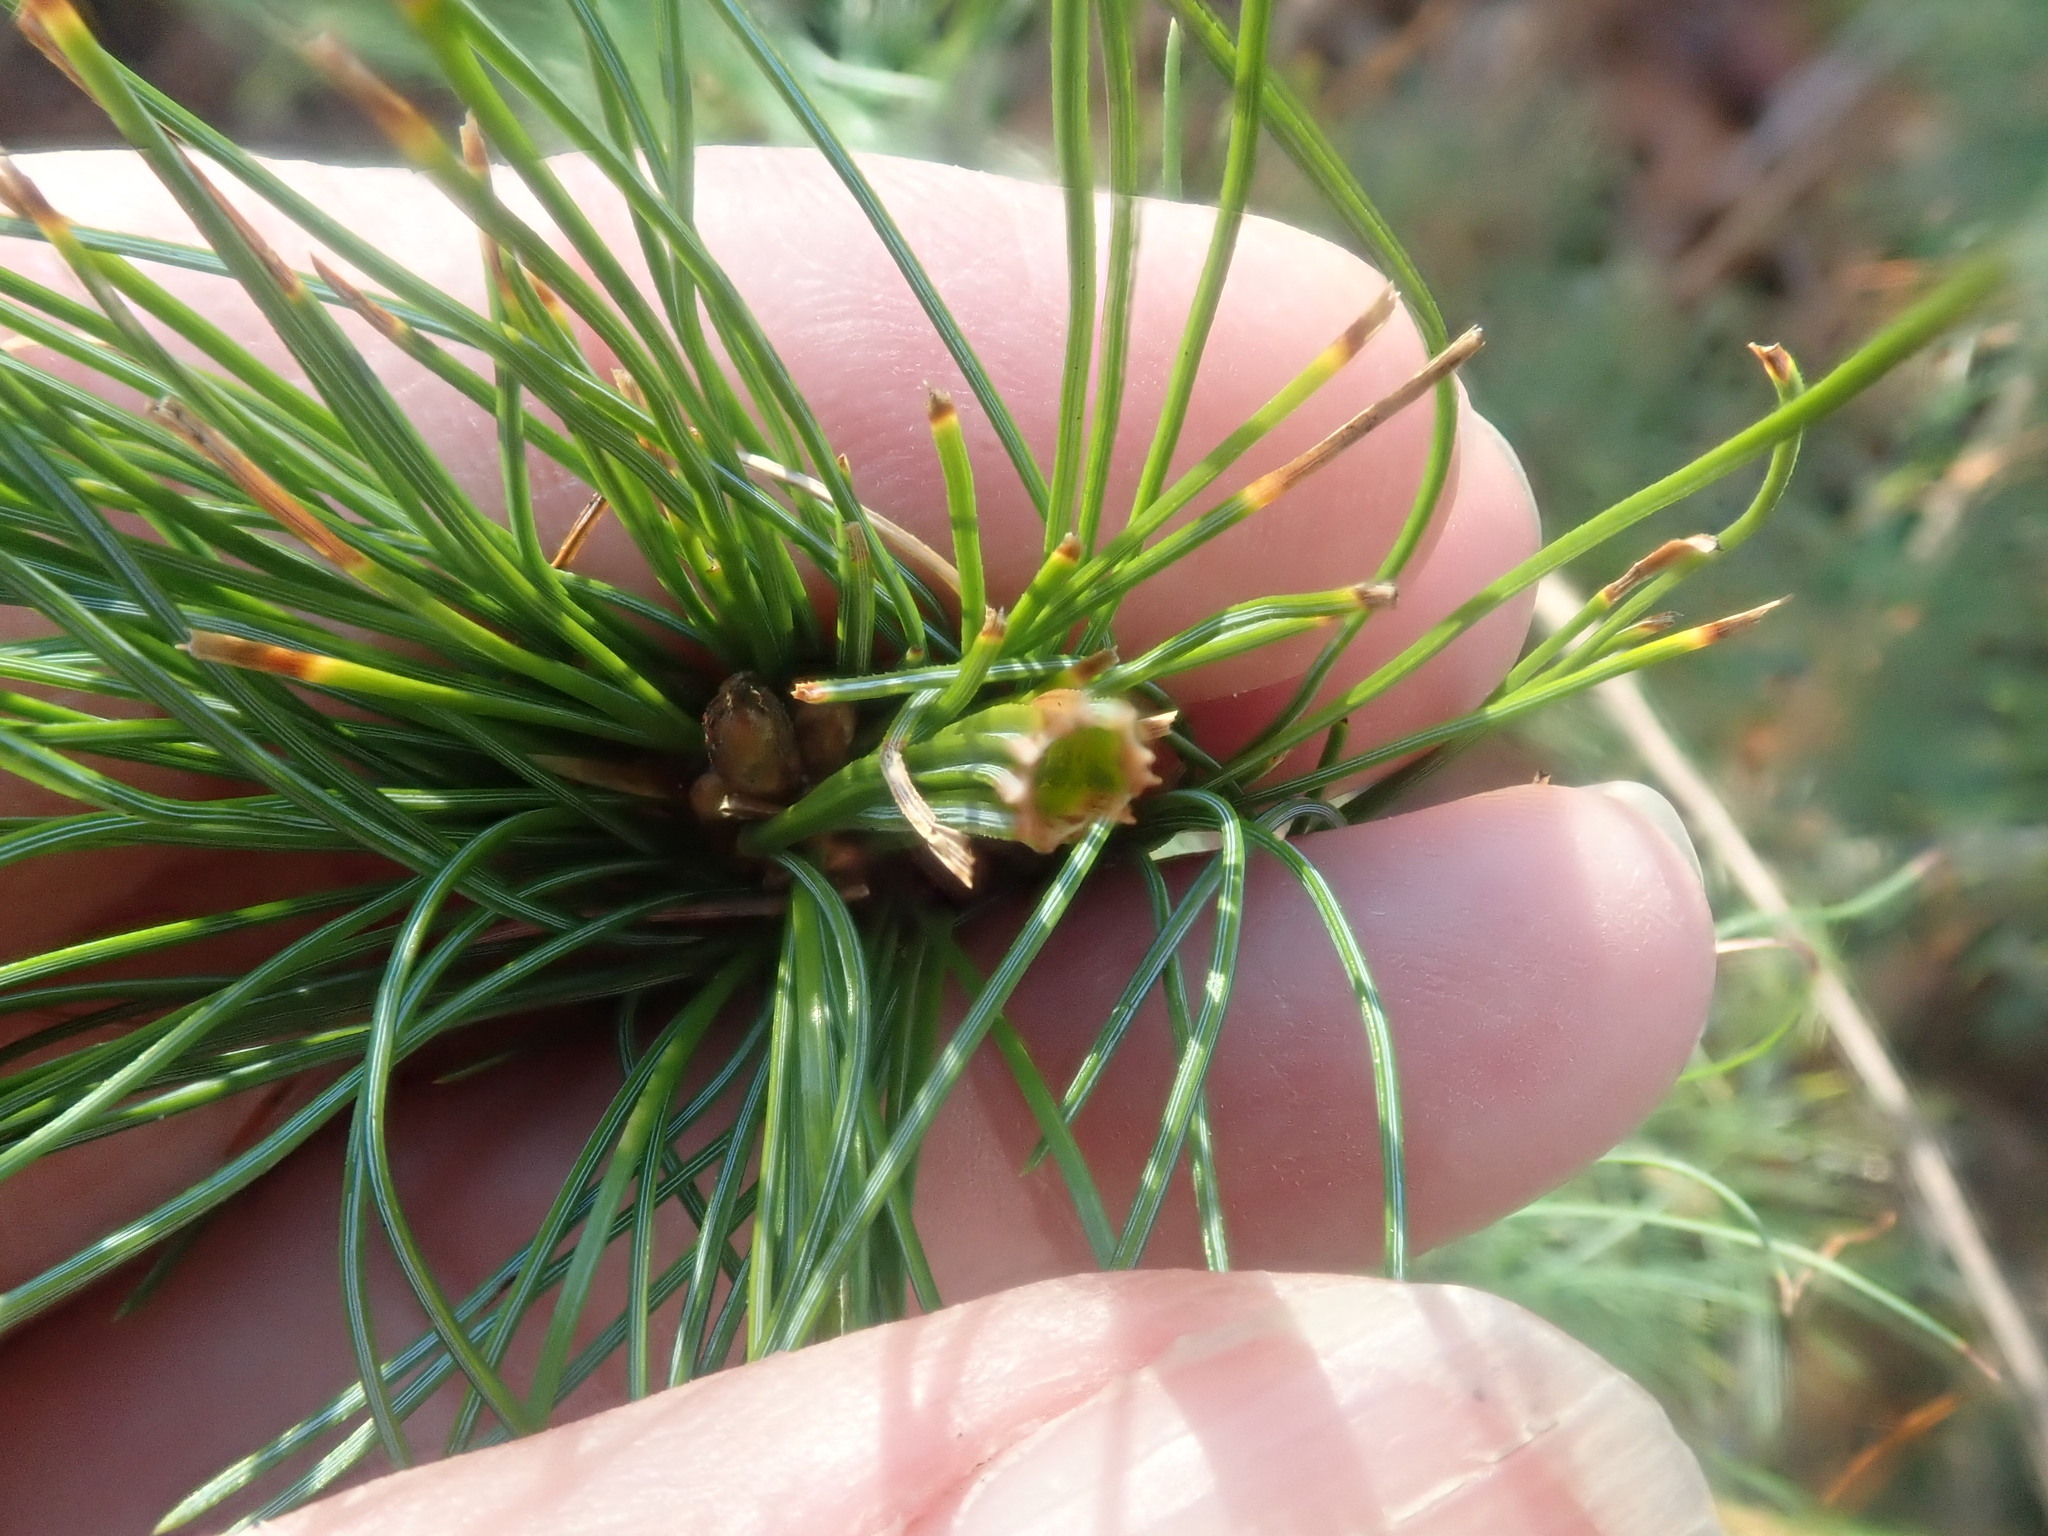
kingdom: Animalia
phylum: Arthropoda
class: Insecta
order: Lepidoptera
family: Tortricidae
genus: Argyrotaenia
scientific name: Argyrotaenia pinatubana
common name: Pine tube moth
